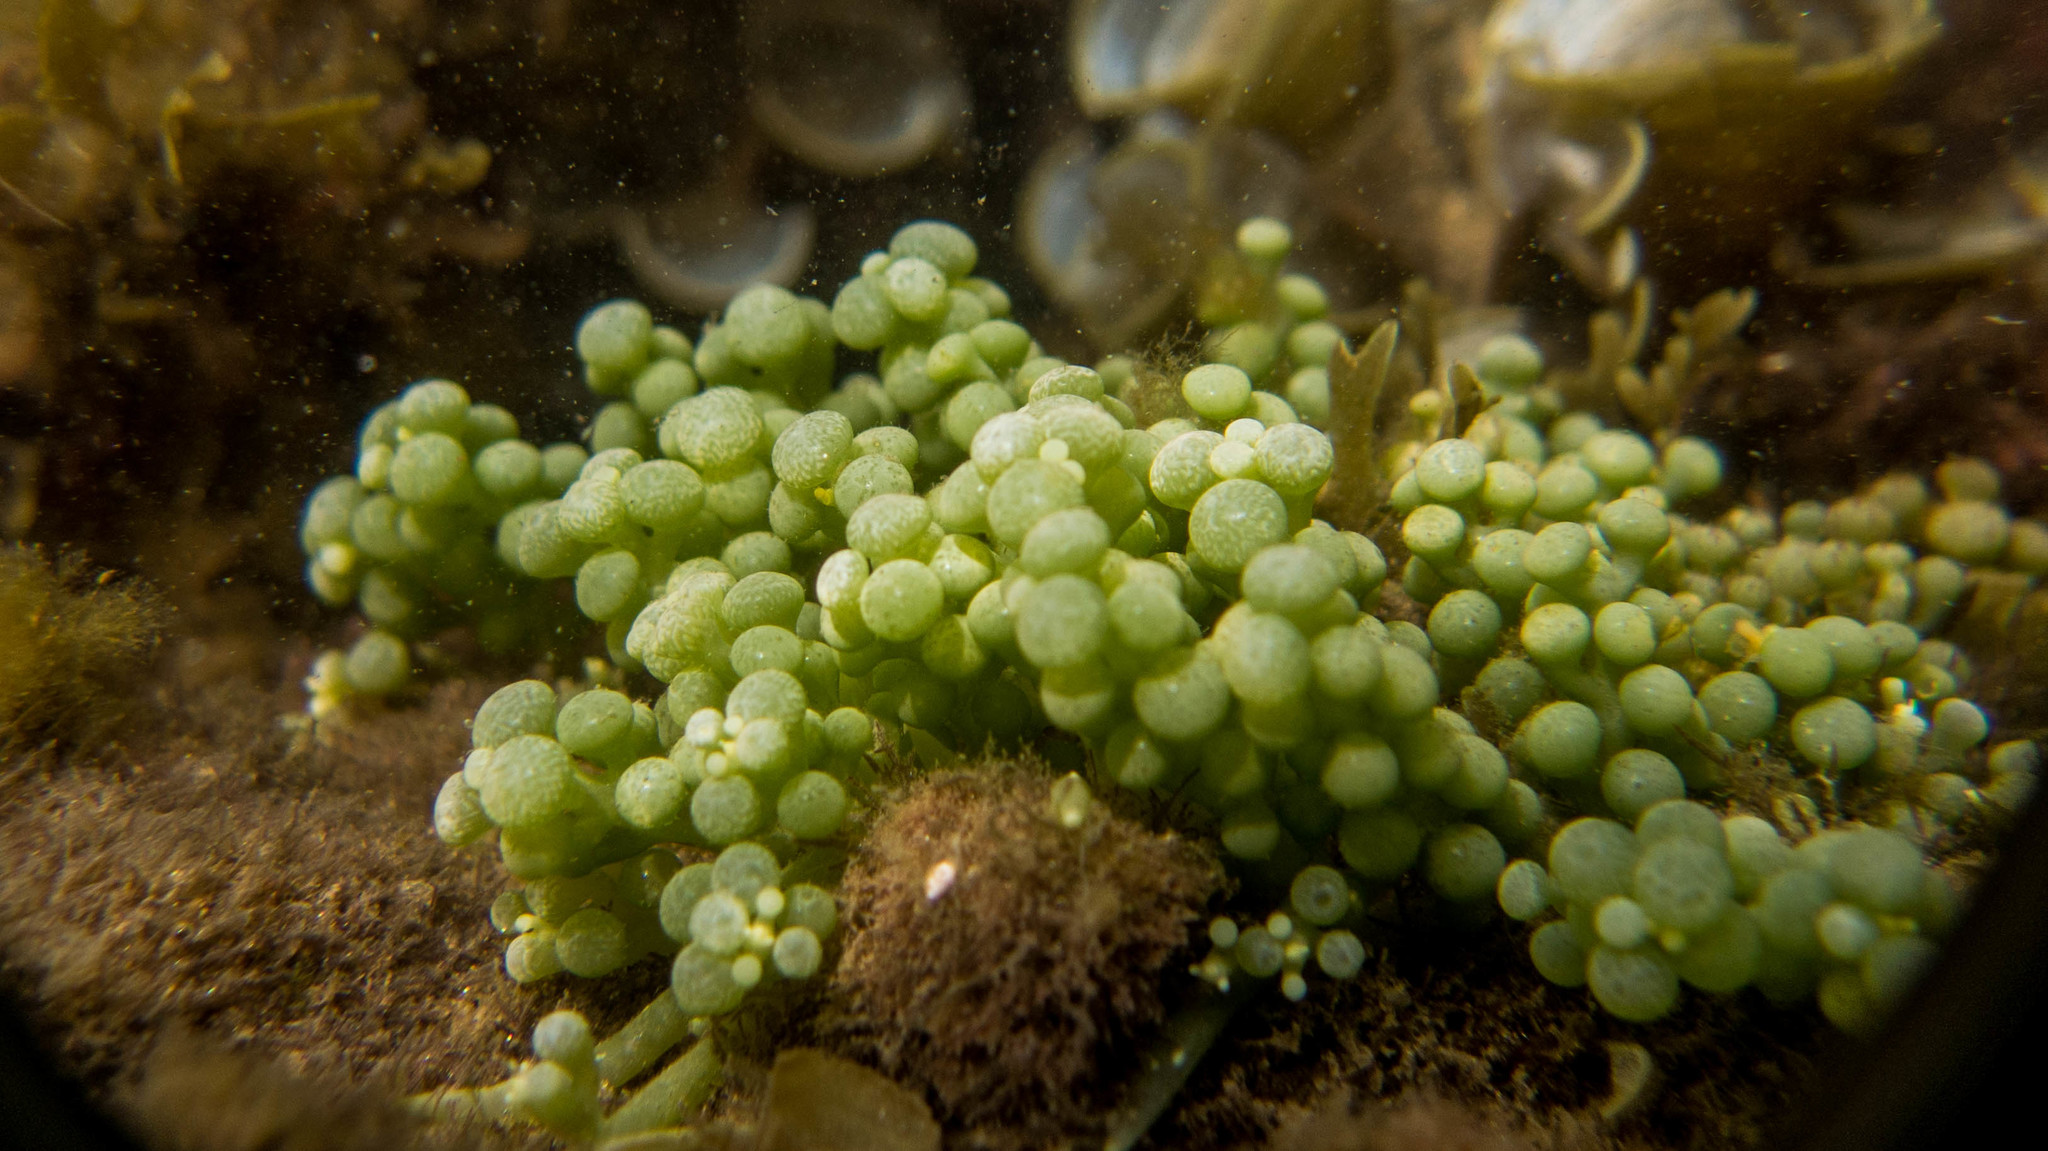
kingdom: Plantae
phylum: Chlorophyta
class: Ulvophyceae
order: Bryopsidales
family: Caulerpaceae
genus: Caulerpa
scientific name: Caulerpa racemosa
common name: Green grape algae
